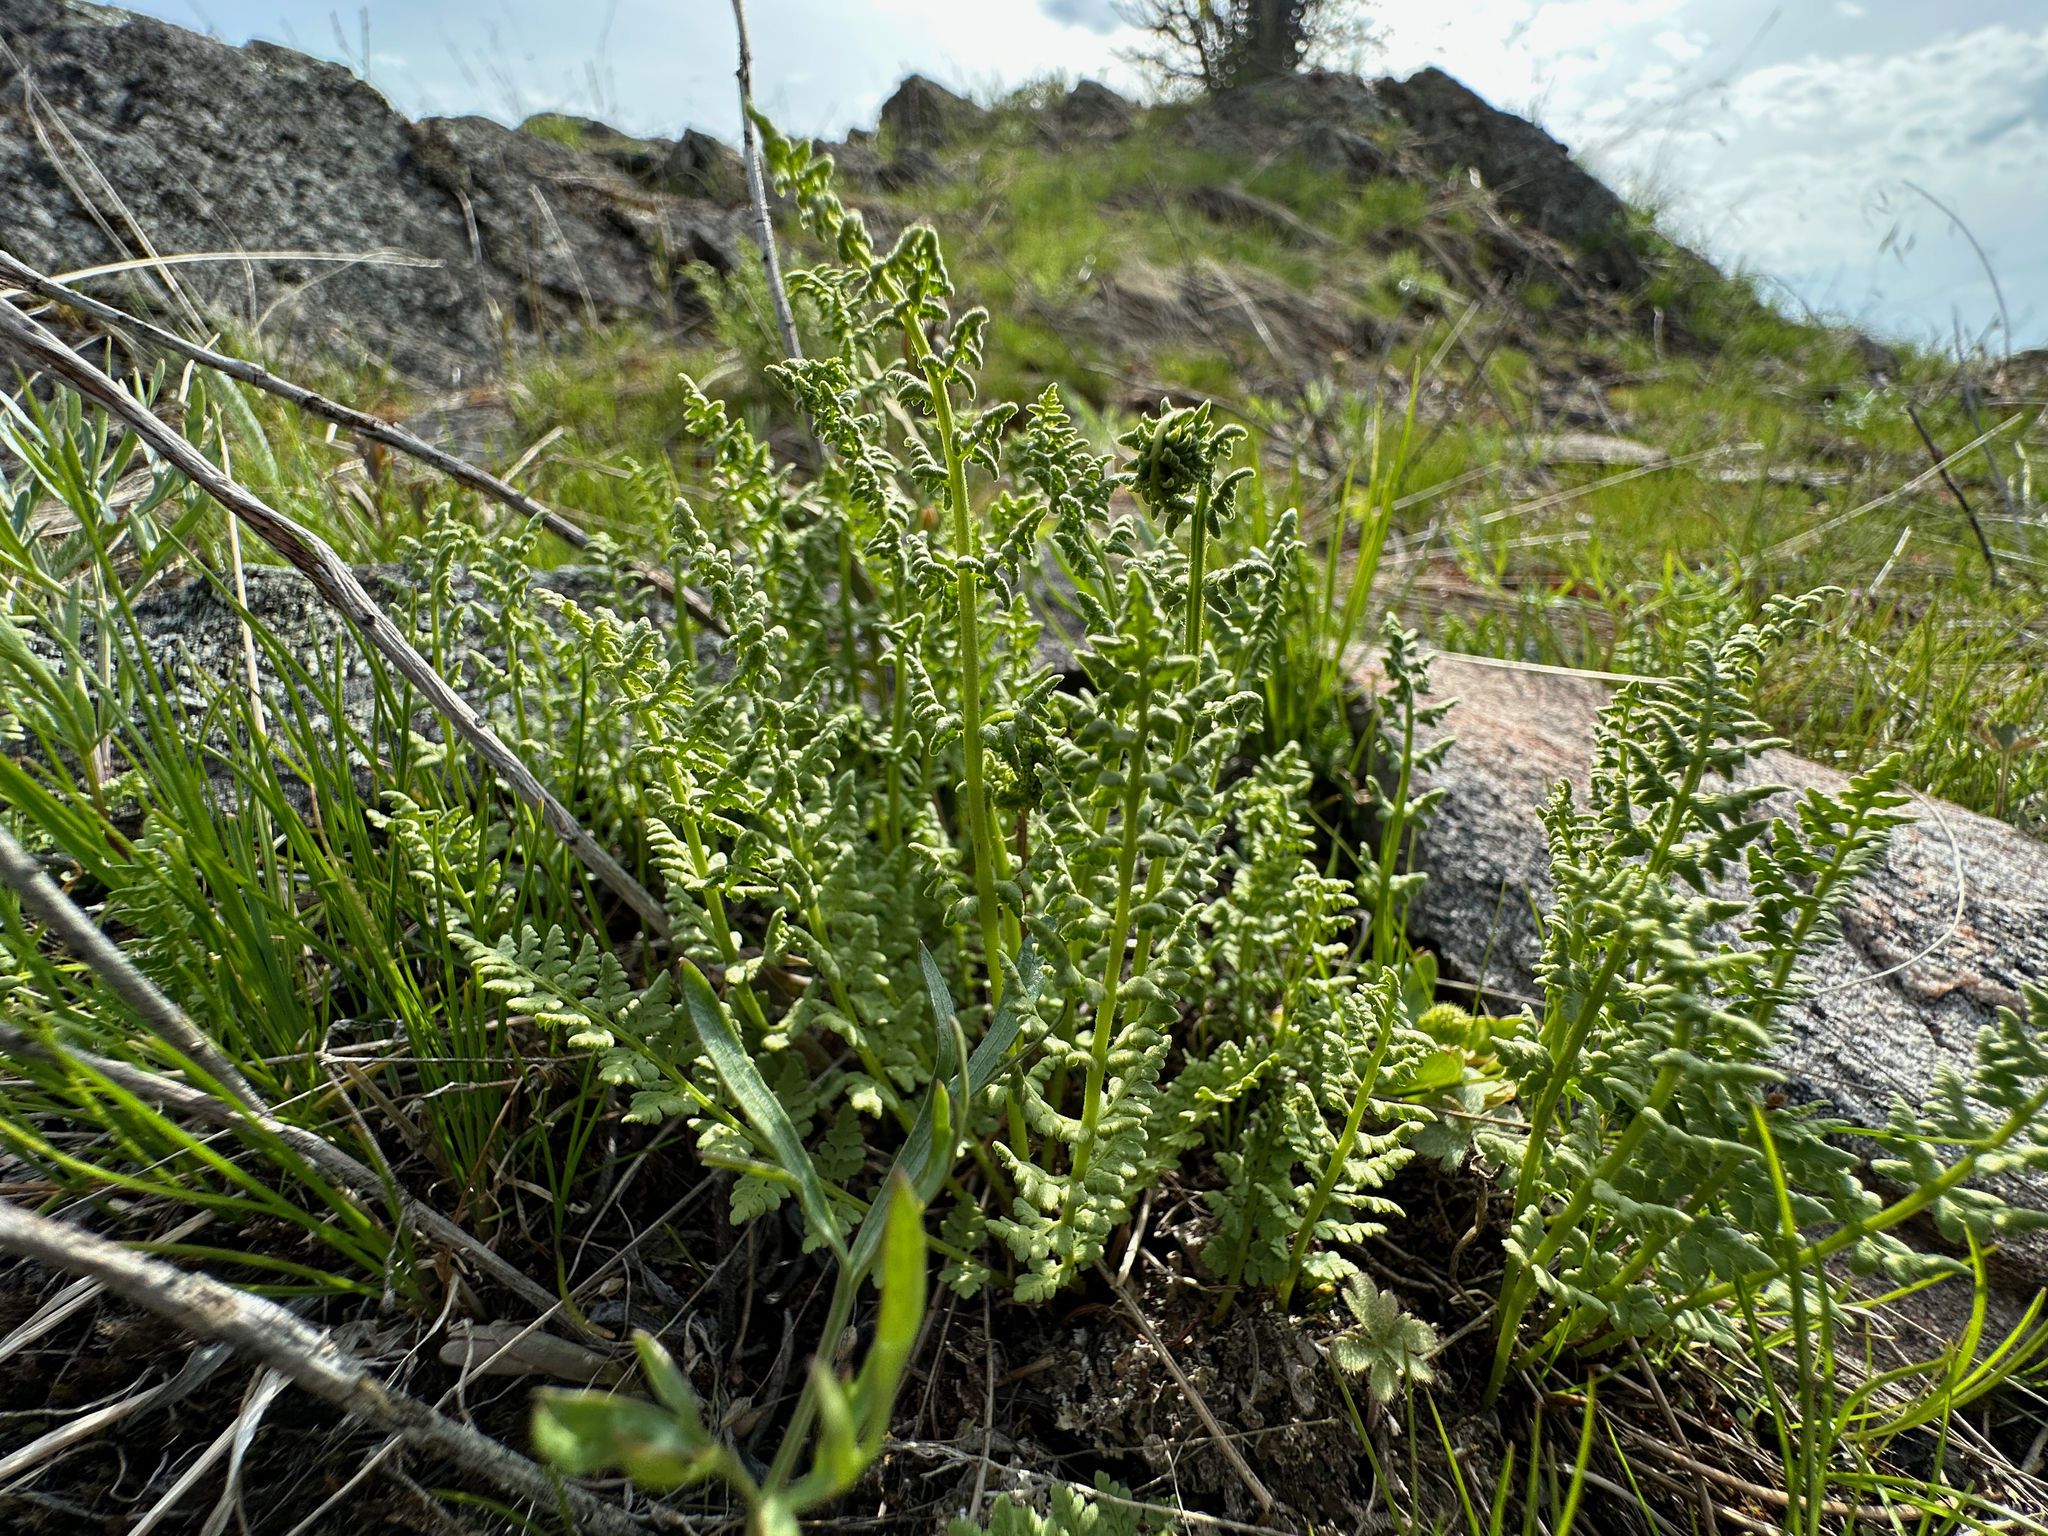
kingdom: Plantae
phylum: Tracheophyta
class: Polypodiopsida
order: Polypodiales
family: Woodsiaceae
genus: Physematium
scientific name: Physematium oreganum
